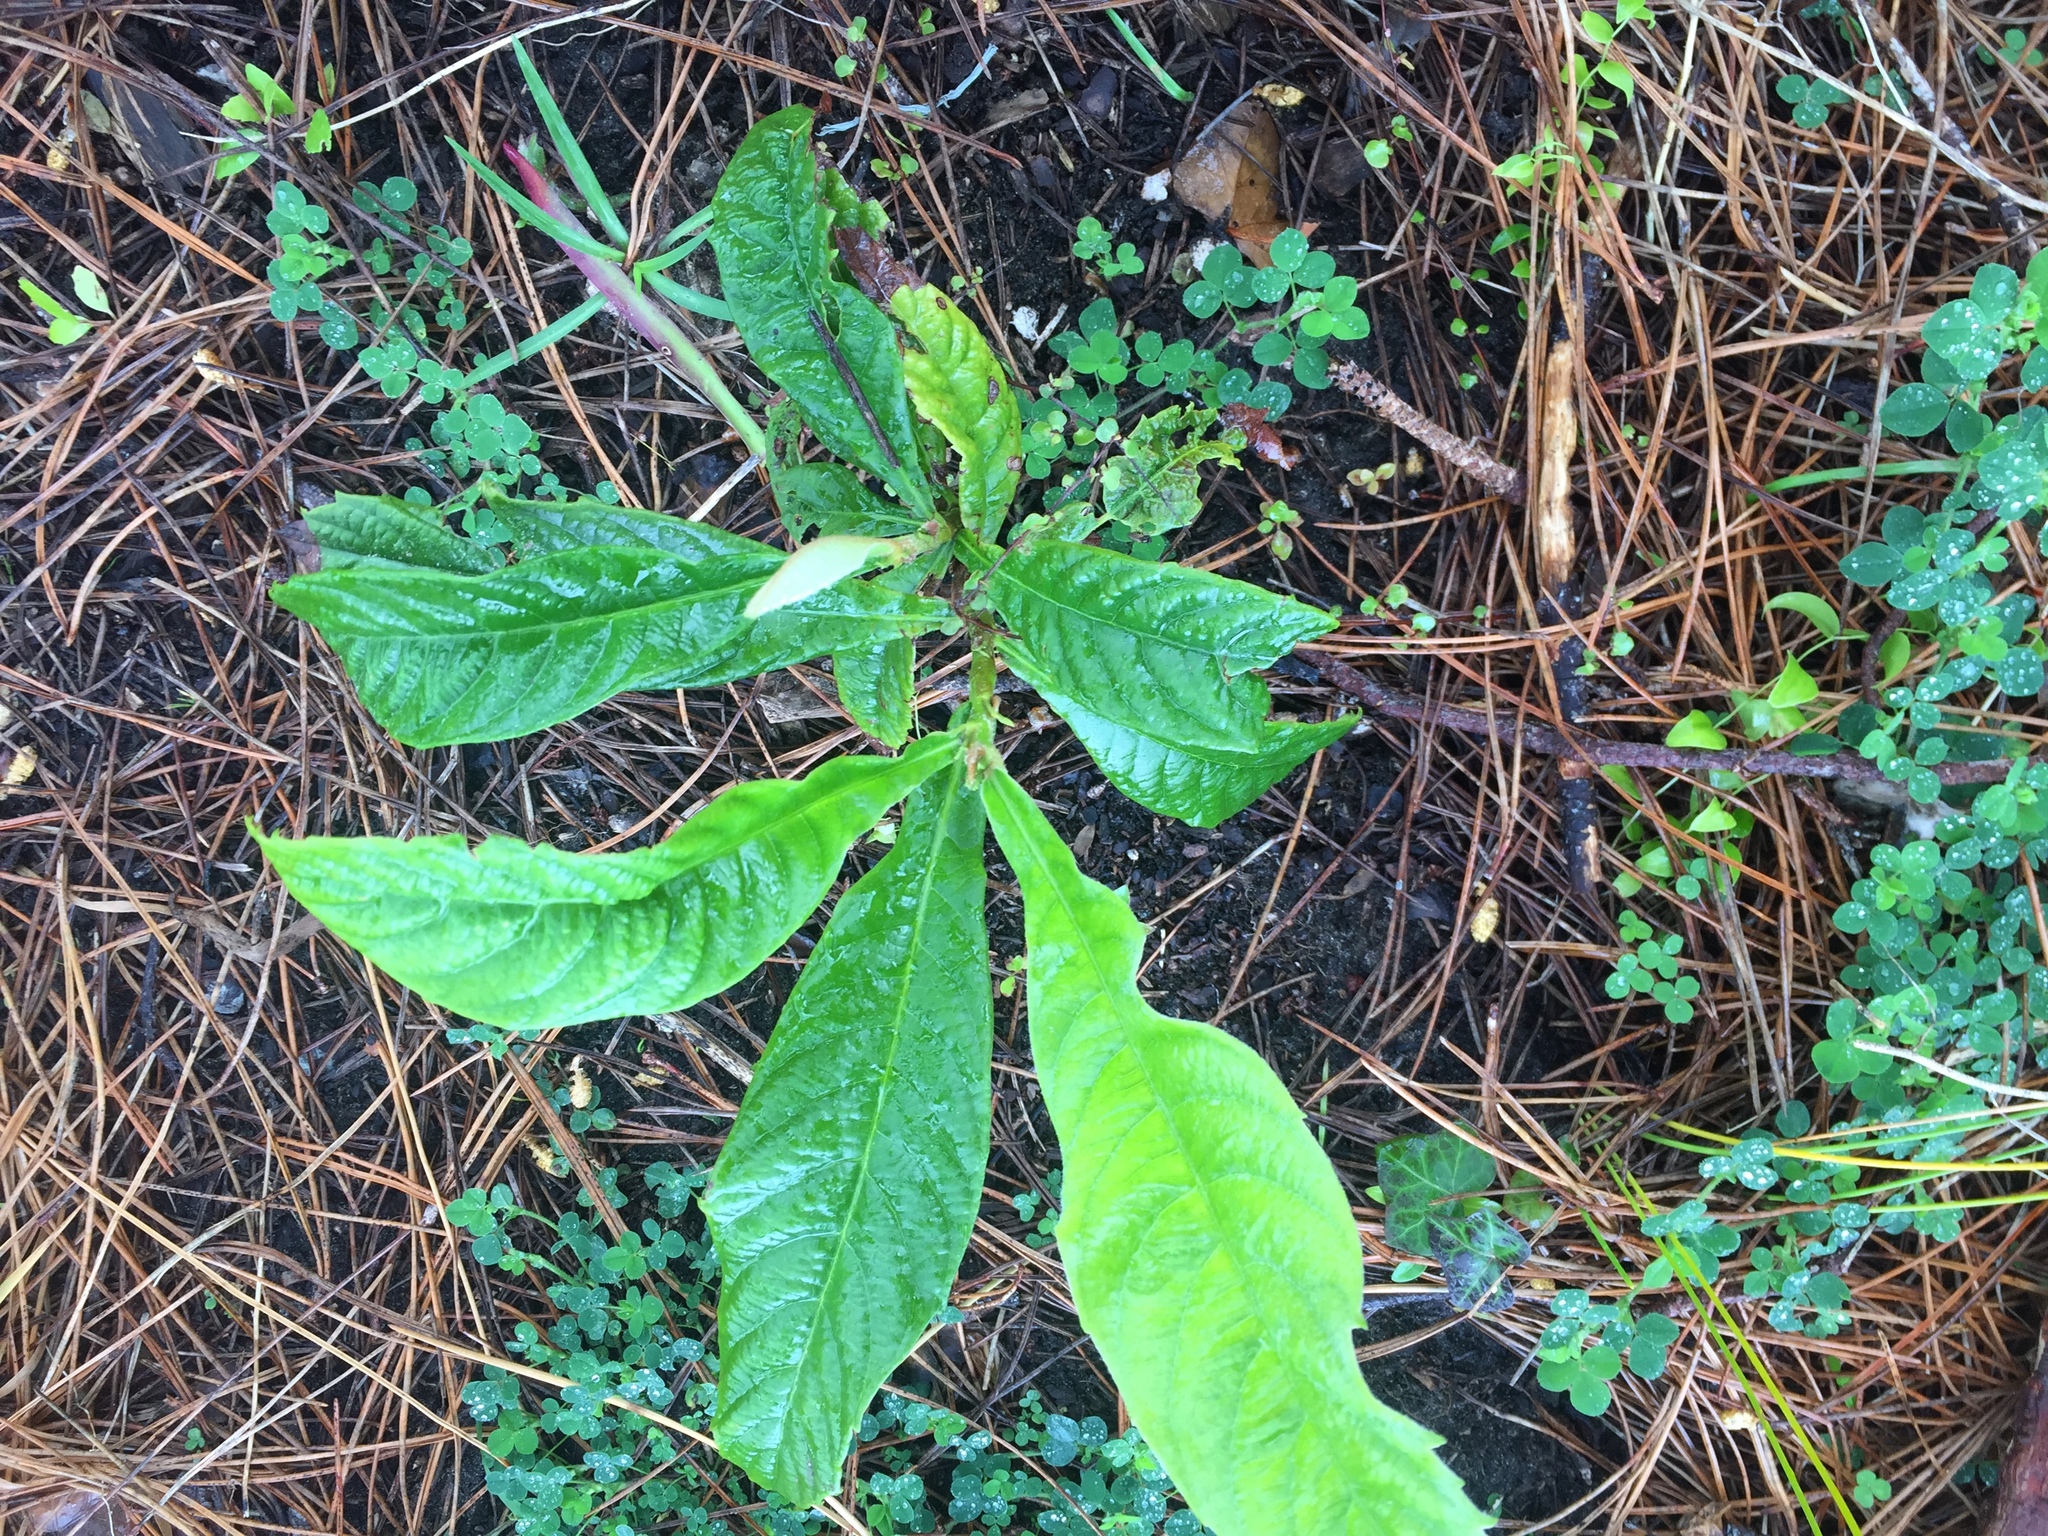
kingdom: Plantae
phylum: Tracheophyta
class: Magnoliopsida
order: Rosales
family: Rosaceae
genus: Rhaphiolepis
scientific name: Rhaphiolepis bibas
